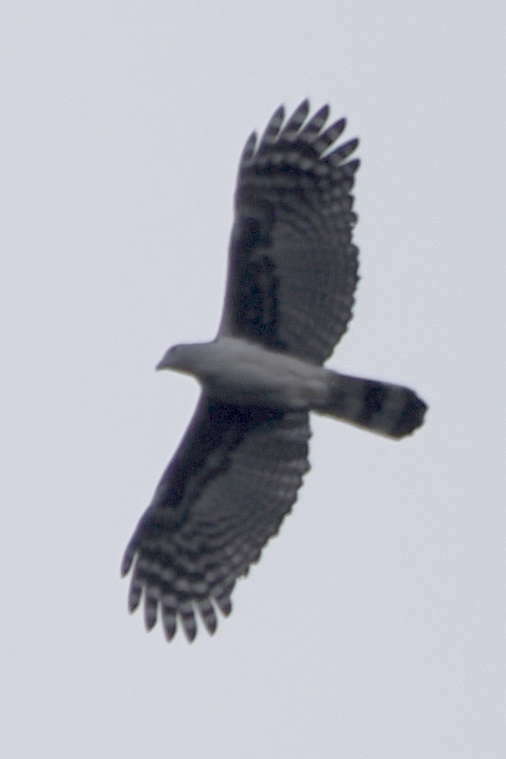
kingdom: Animalia
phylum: Chordata
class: Aves
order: Accipitriformes
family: Accipitridae
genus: Leptodon
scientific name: Leptodon cayanensis
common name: Gray-headed kite
